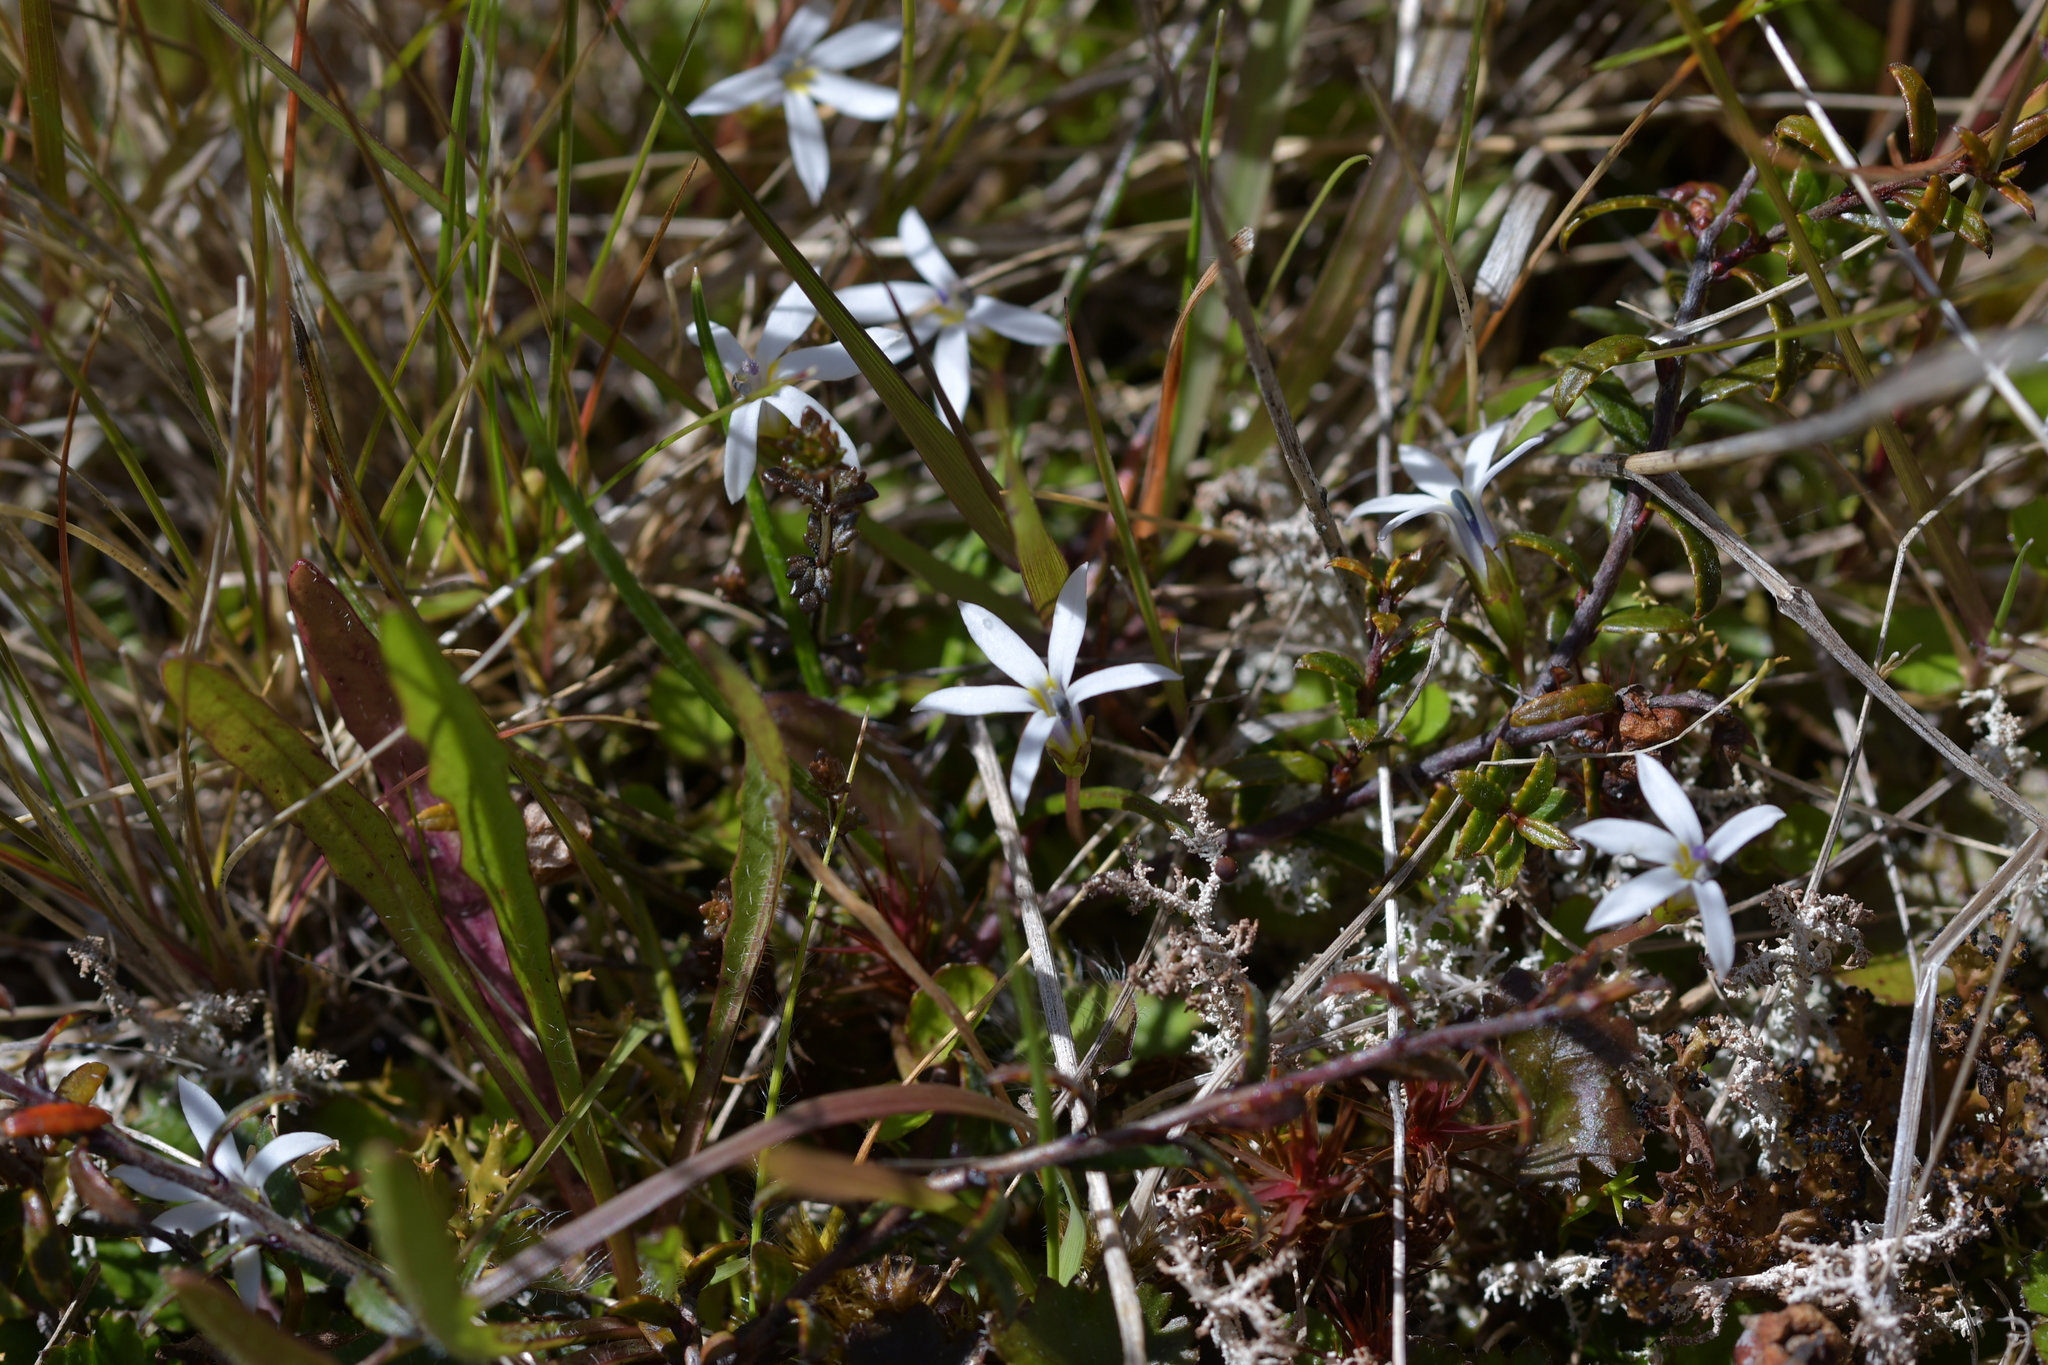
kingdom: Plantae
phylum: Tracheophyta
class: Magnoliopsida
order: Asterales
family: Campanulaceae
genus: Lobelia
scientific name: Lobelia angulata
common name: Lawn lobelia
